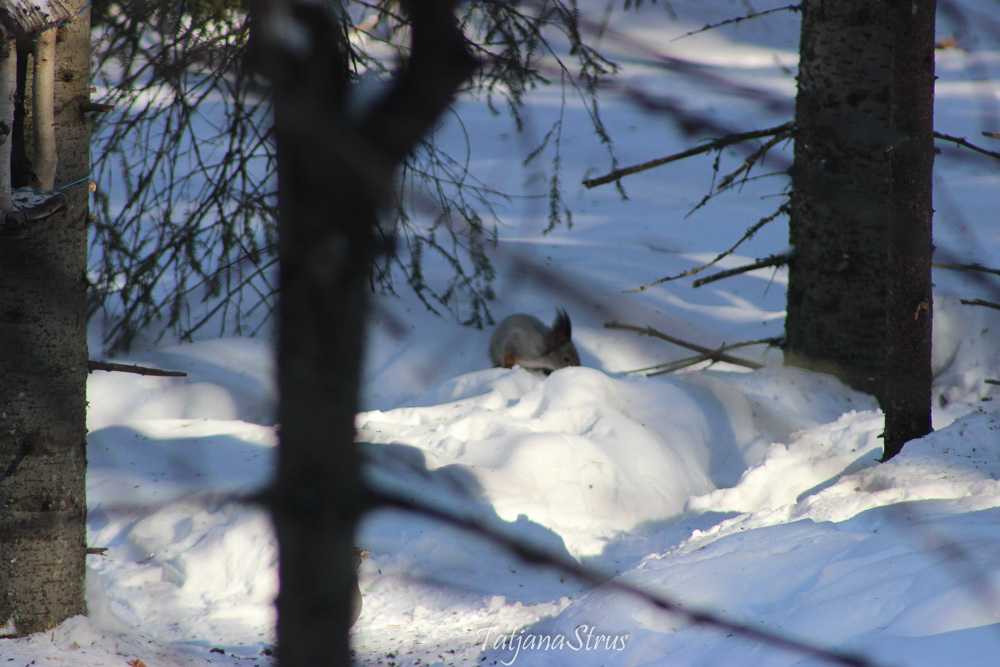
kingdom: Animalia
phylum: Chordata
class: Mammalia
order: Rodentia
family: Sciuridae
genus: Sciurus
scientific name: Sciurus vulgaris
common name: Eurasian red squirrel
